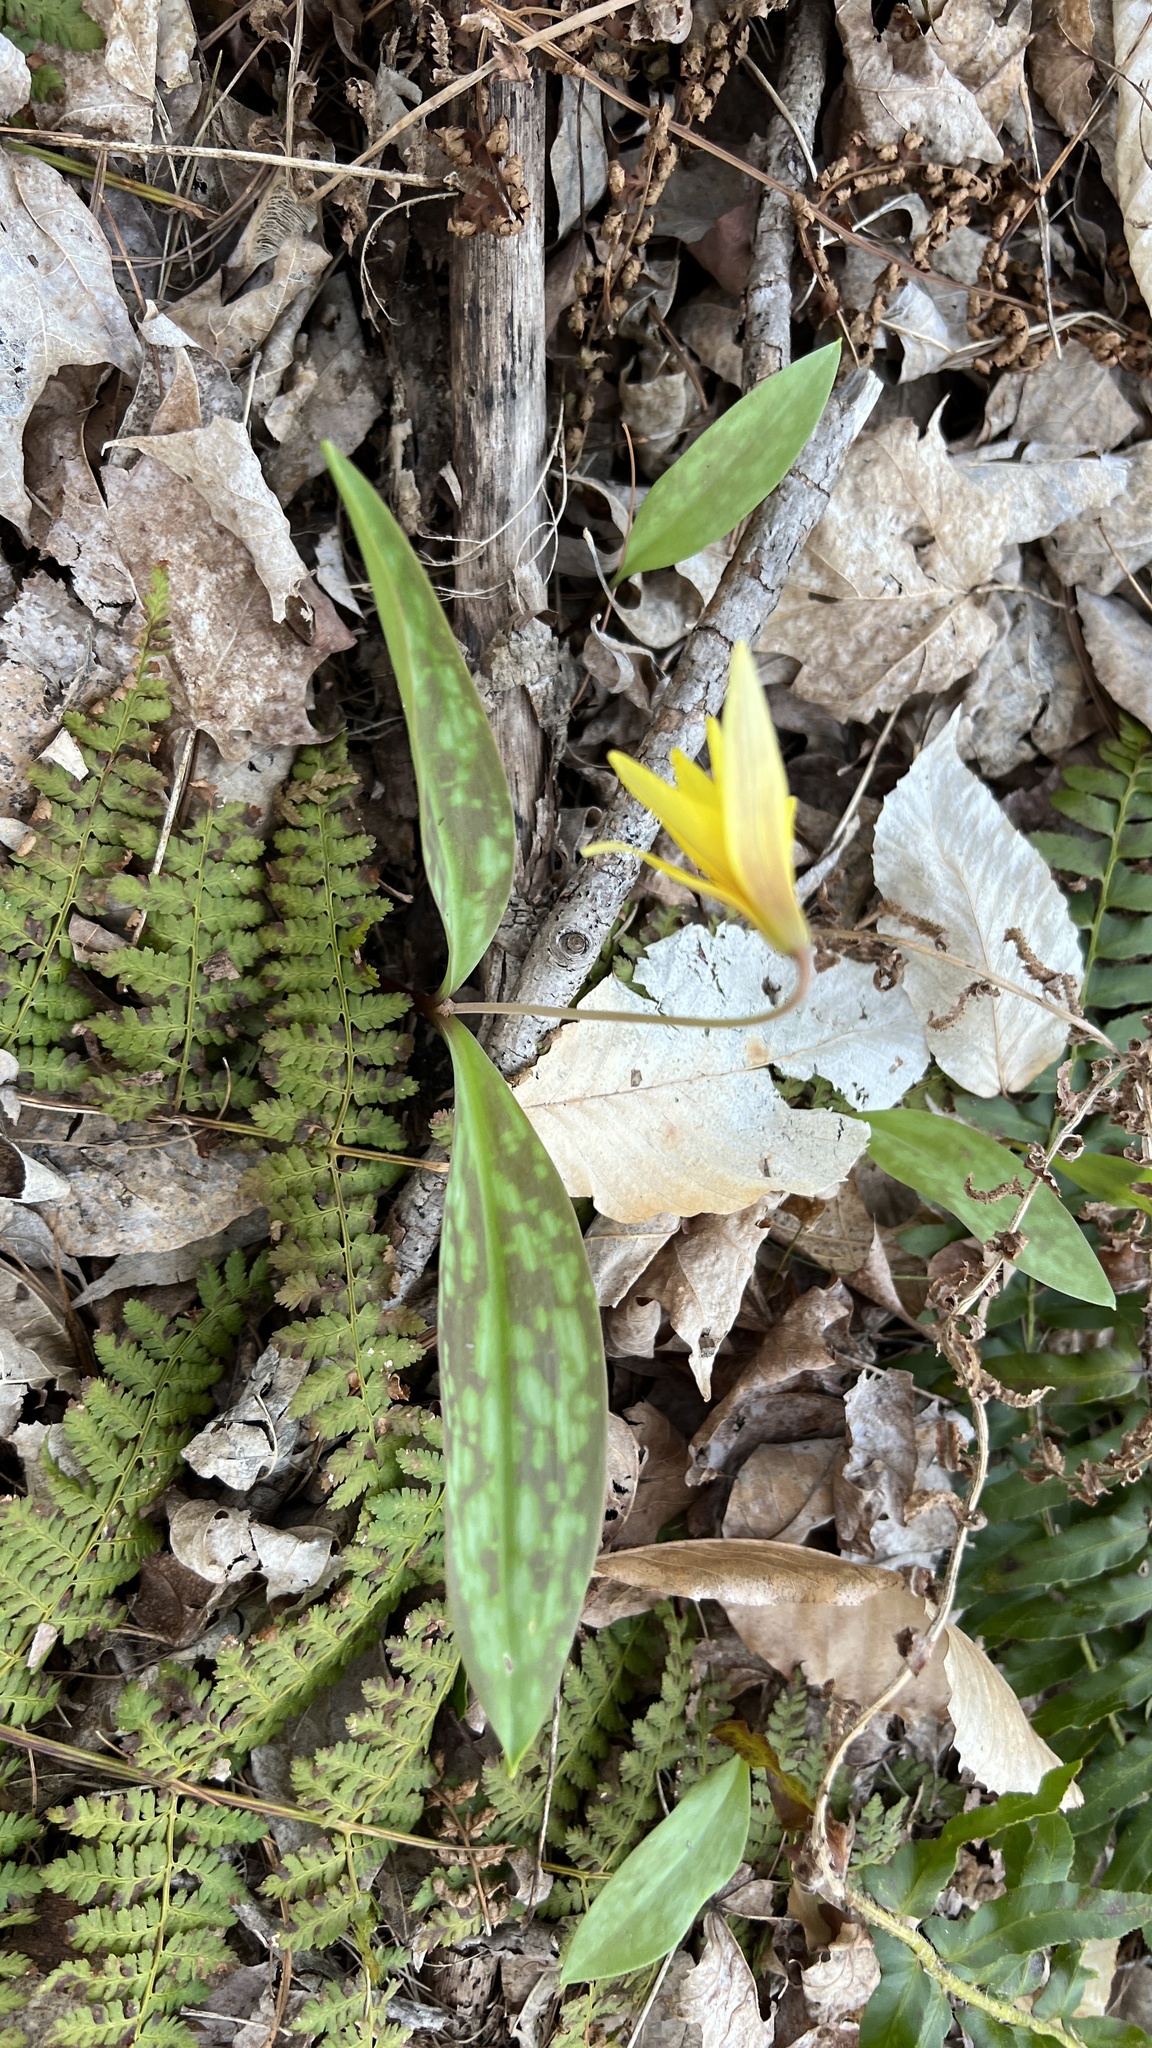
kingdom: Plantae
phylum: Tracheophyta
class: Liliopsida
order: Liliales
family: Liliaceae
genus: Erythronium
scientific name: Erythronium americanum
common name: Yellow adder's-tongue
